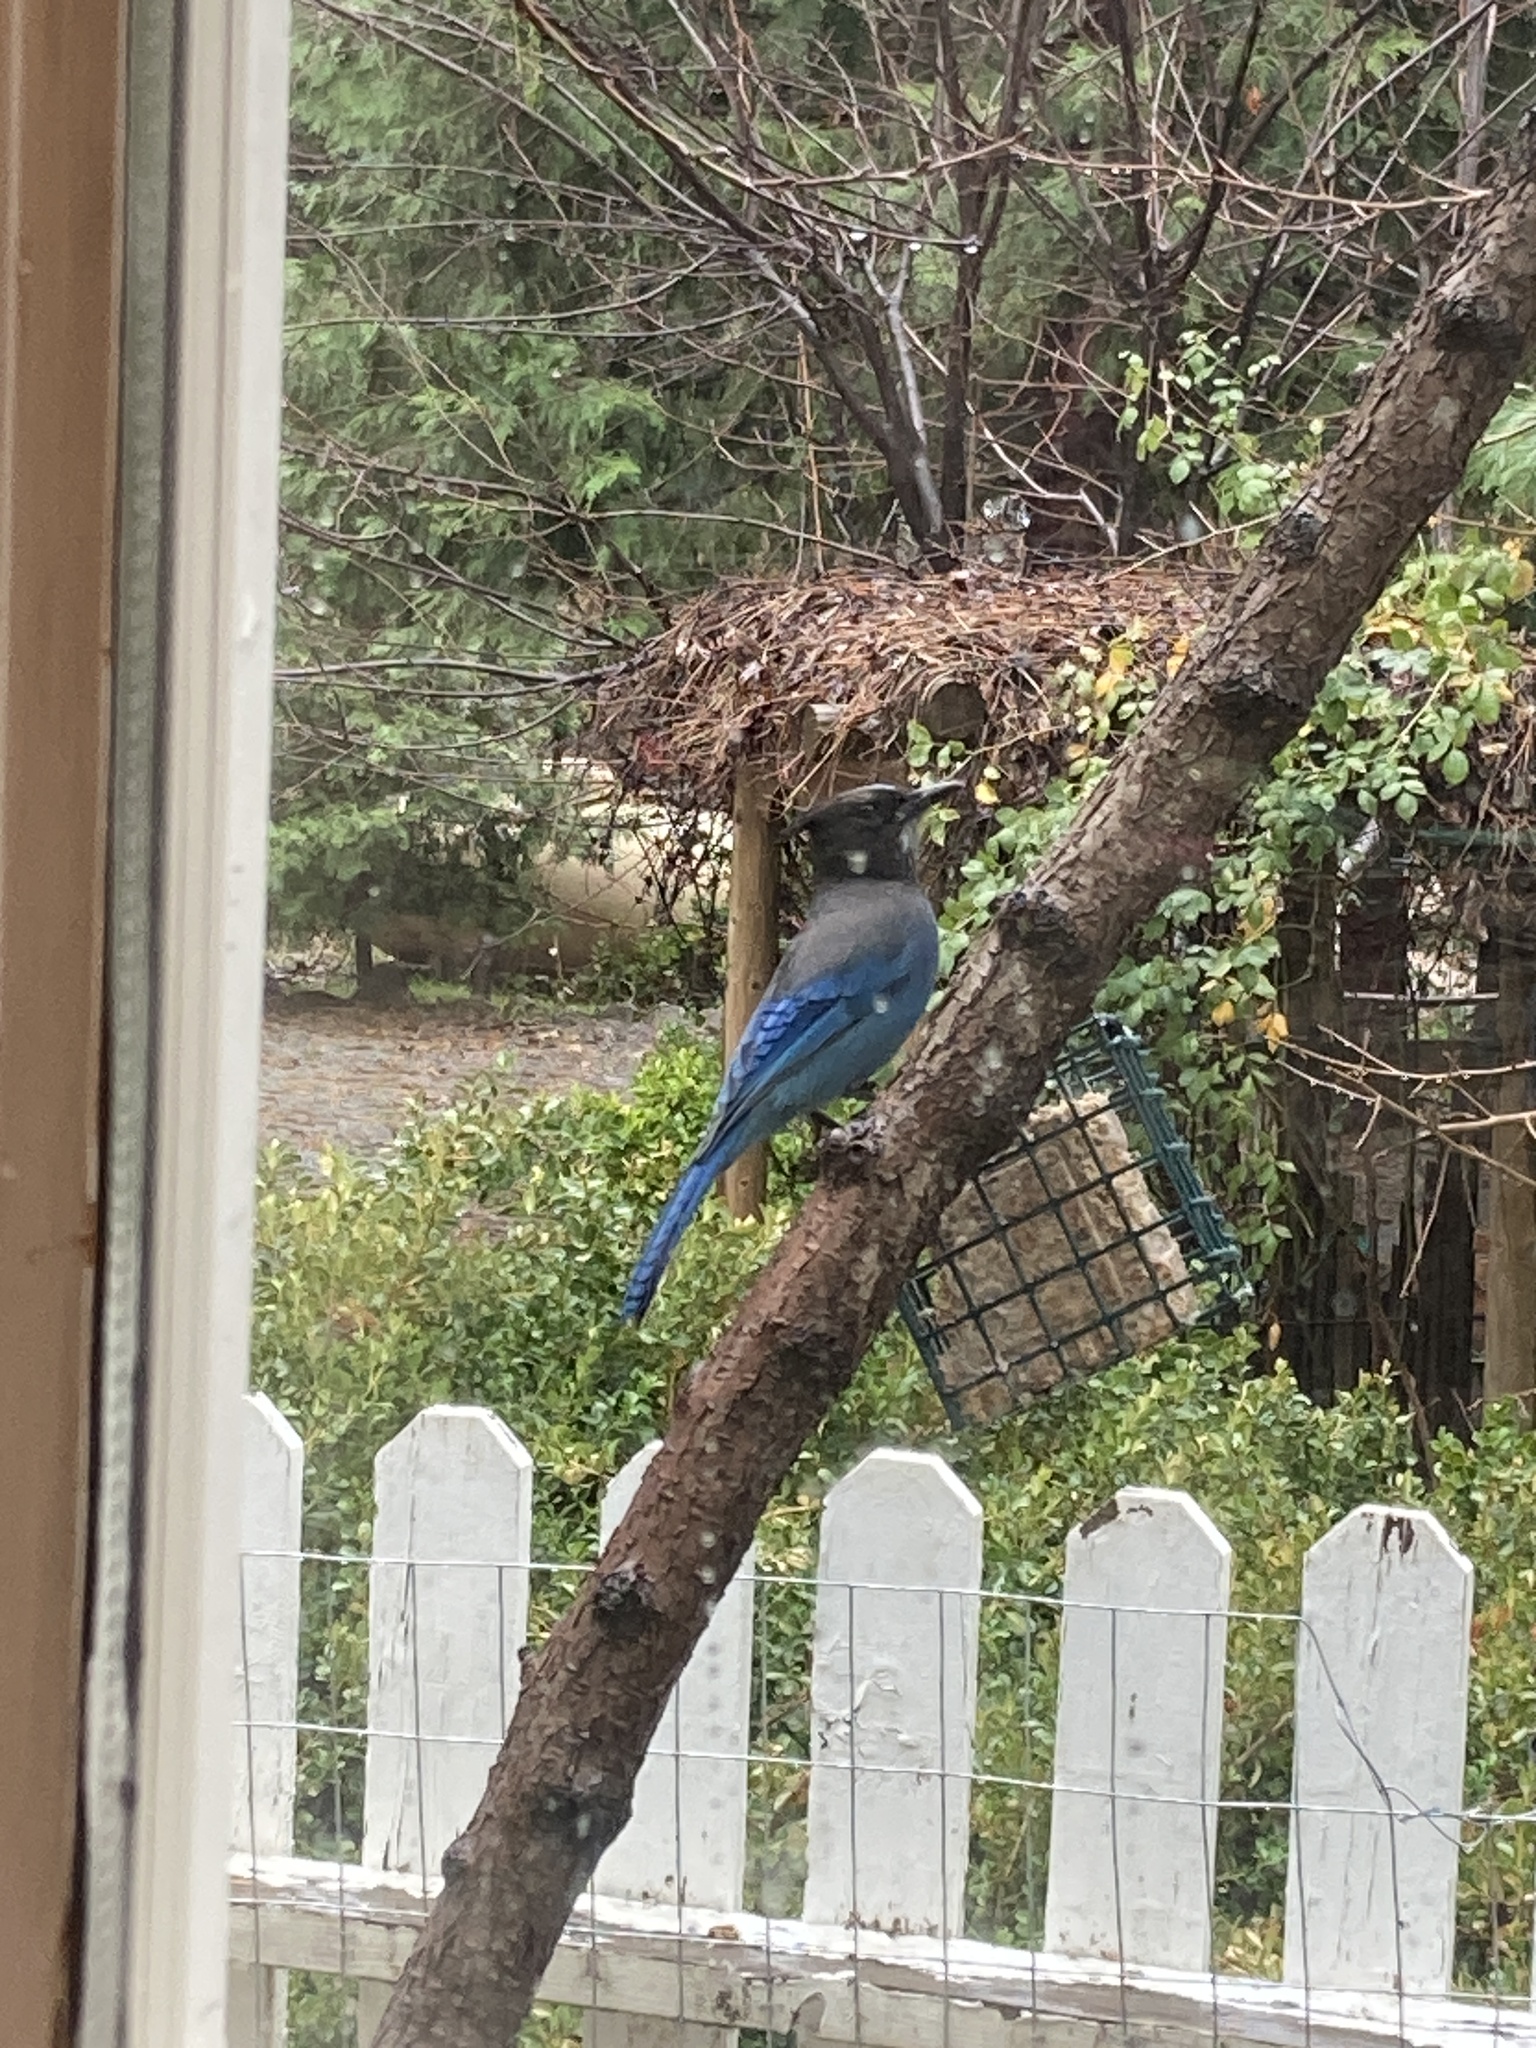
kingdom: Animalia
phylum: Chordata
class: Aves
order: Passeriformes
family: Corvidae
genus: Cyanocitta
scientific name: Cyanocitta stelleri
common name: Steller's jay
